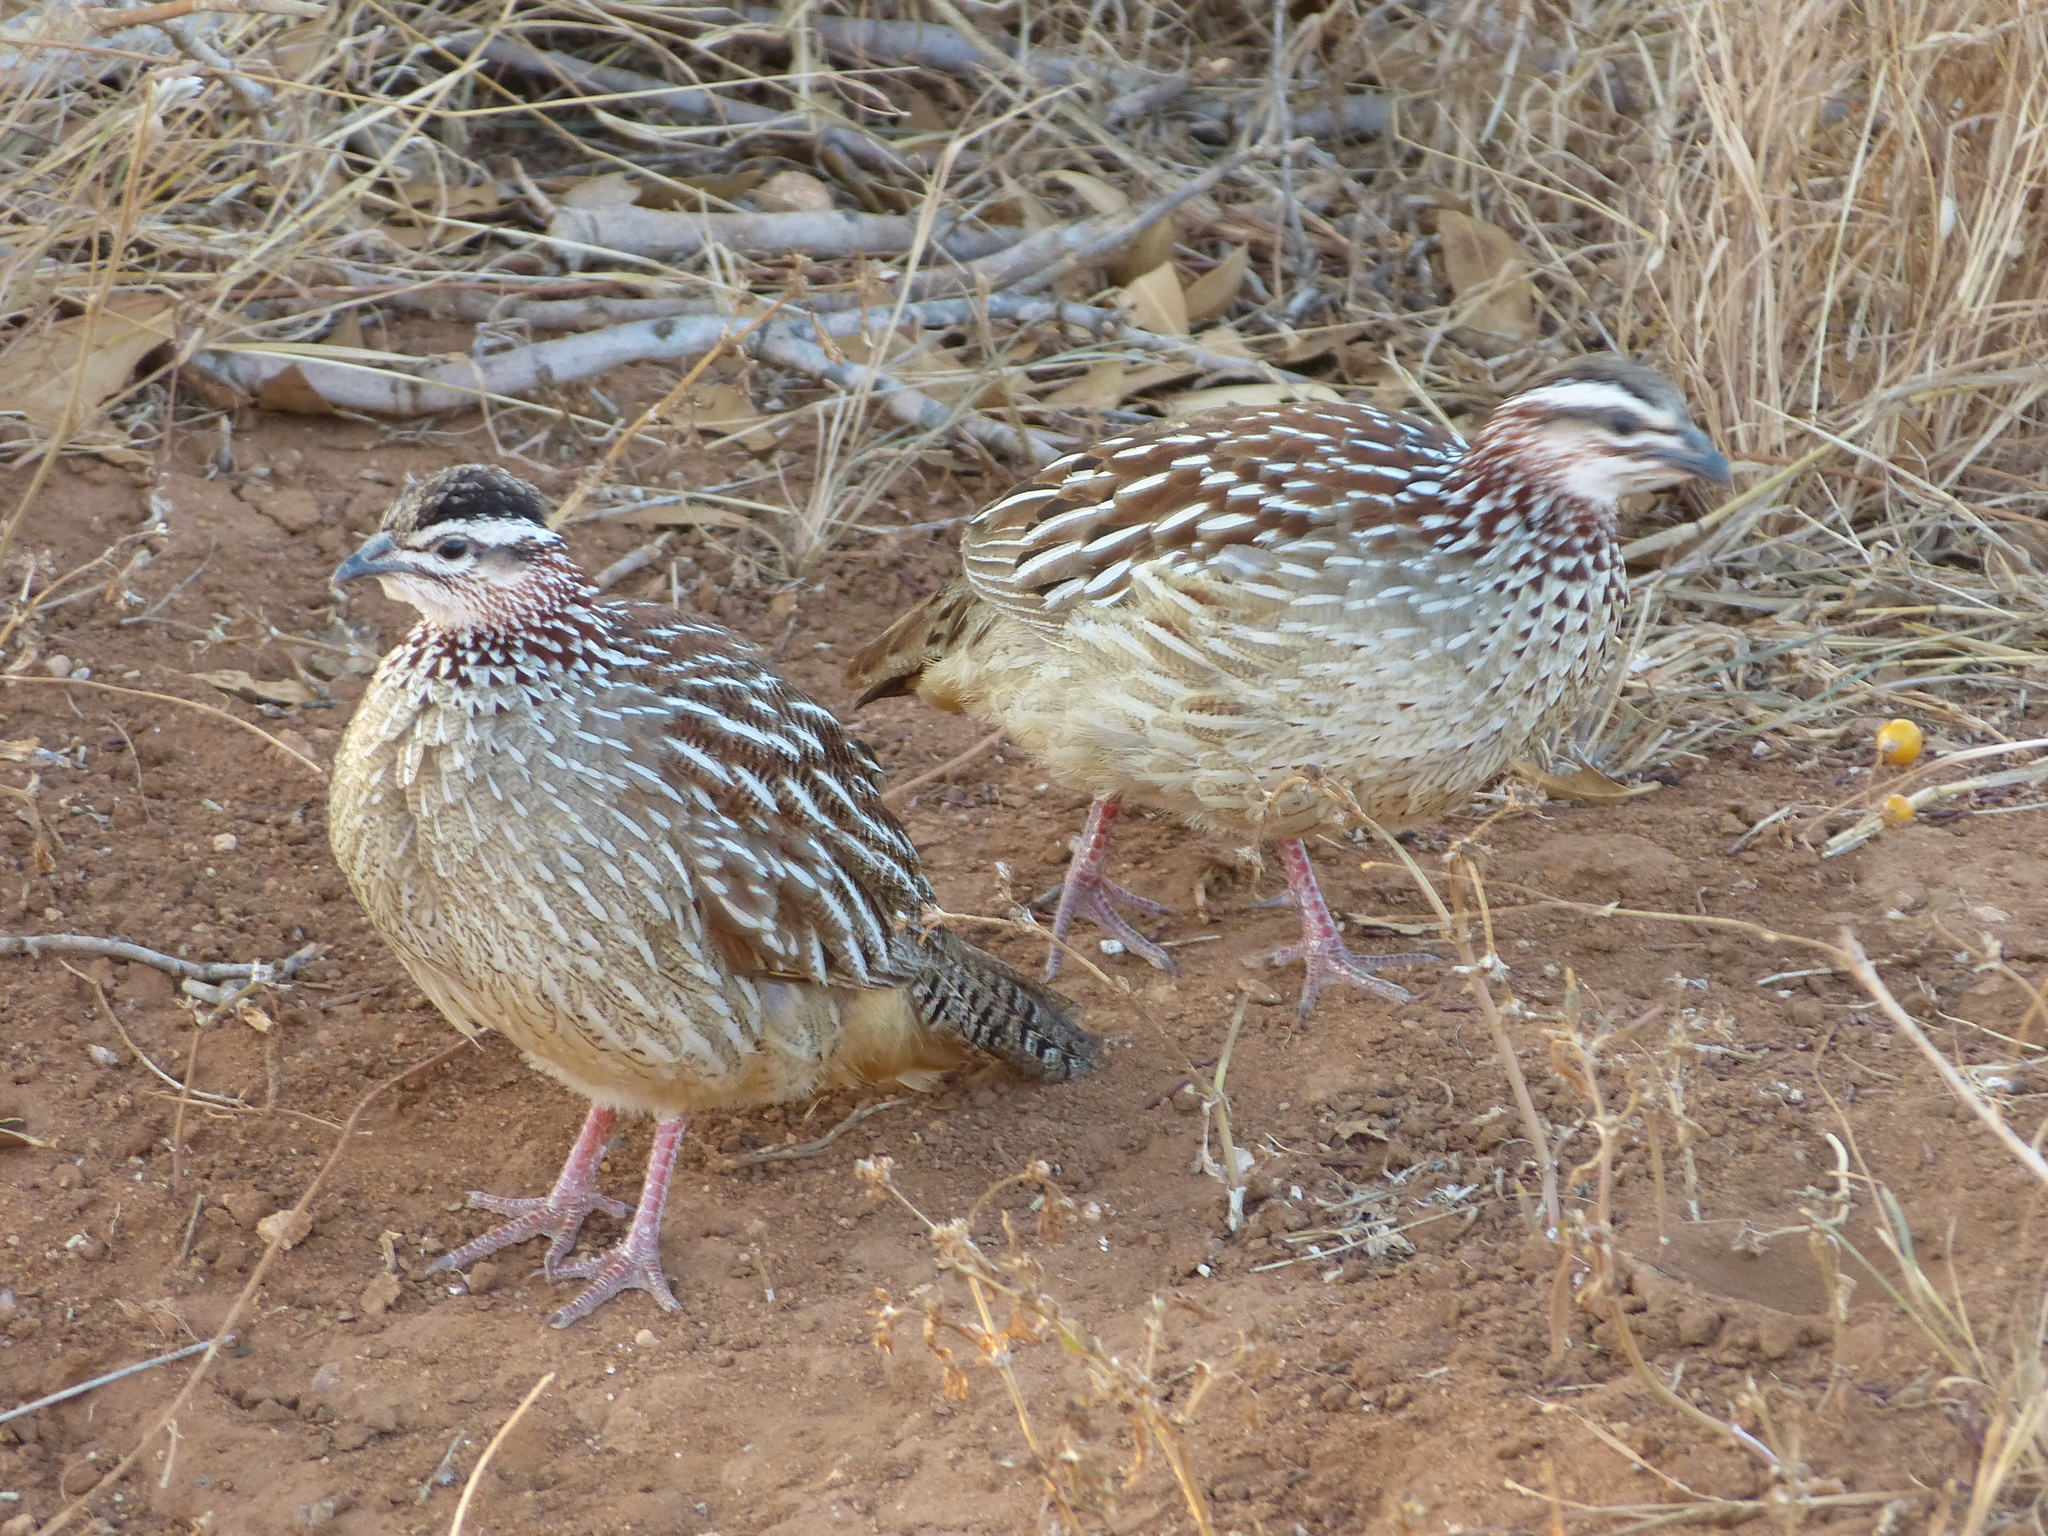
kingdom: Animalia
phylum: Chordata
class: Aves
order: Galliformes
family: Phasianidae
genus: Ortygornis
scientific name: Ortygornis sephaena
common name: Crested francolin
